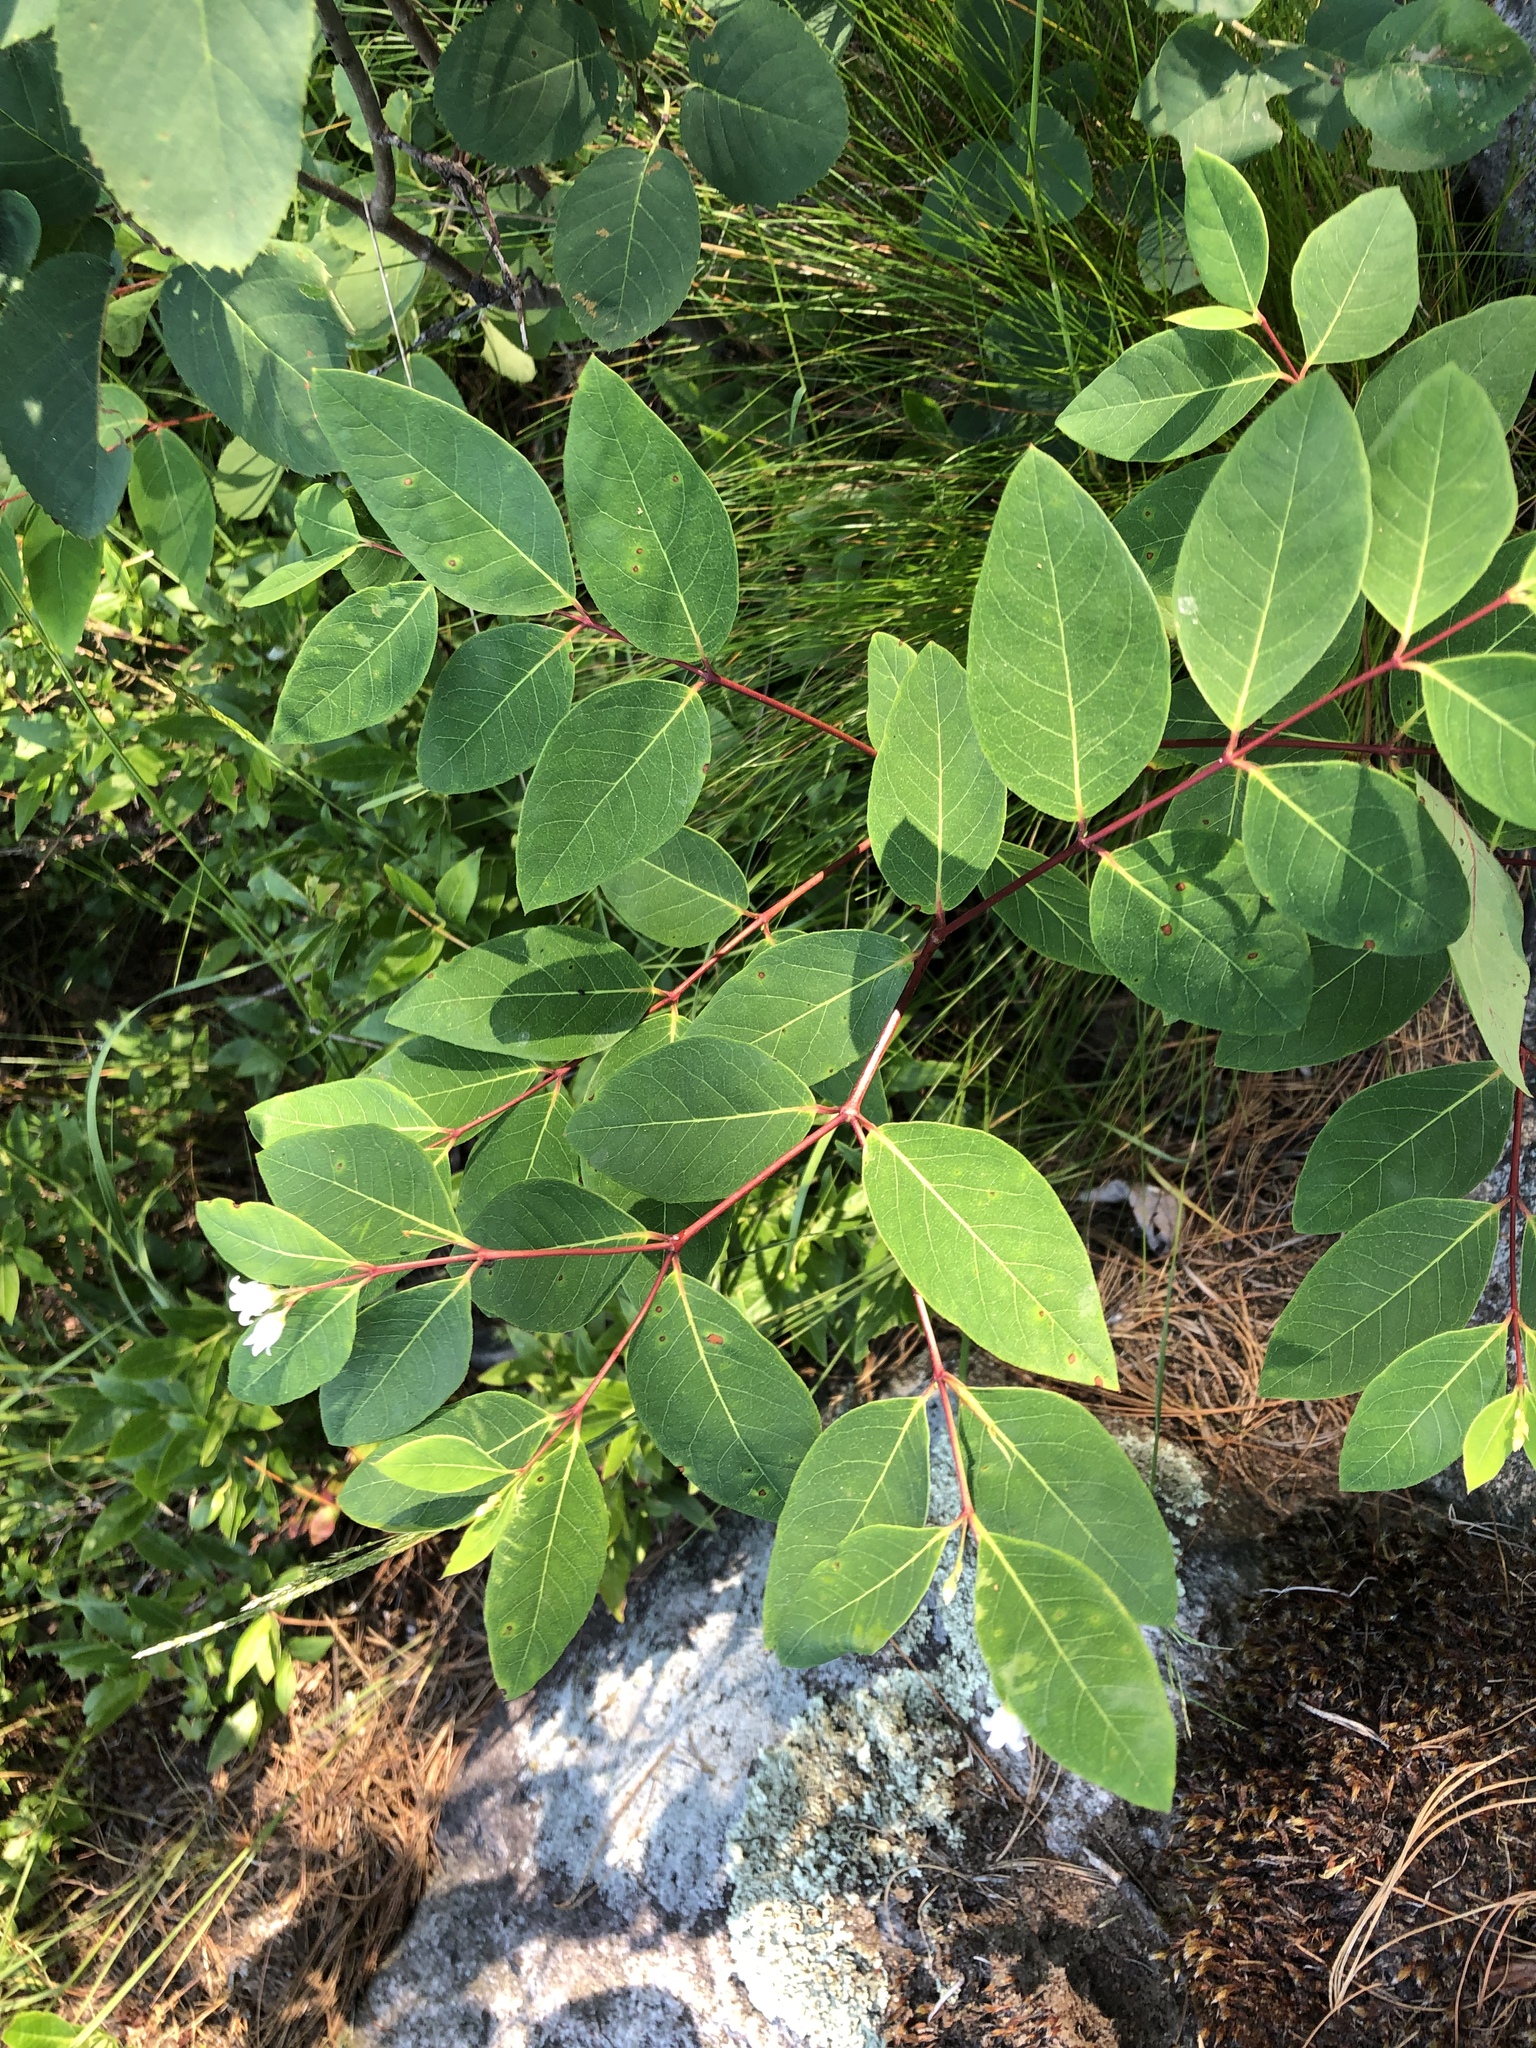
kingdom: Plantae
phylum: Tracheophyta
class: Magnoliopsida
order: Gentianales
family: Apocynaceae
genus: Apocynum
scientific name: Apocynum androsaemifolium
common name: Spreading dogbane
